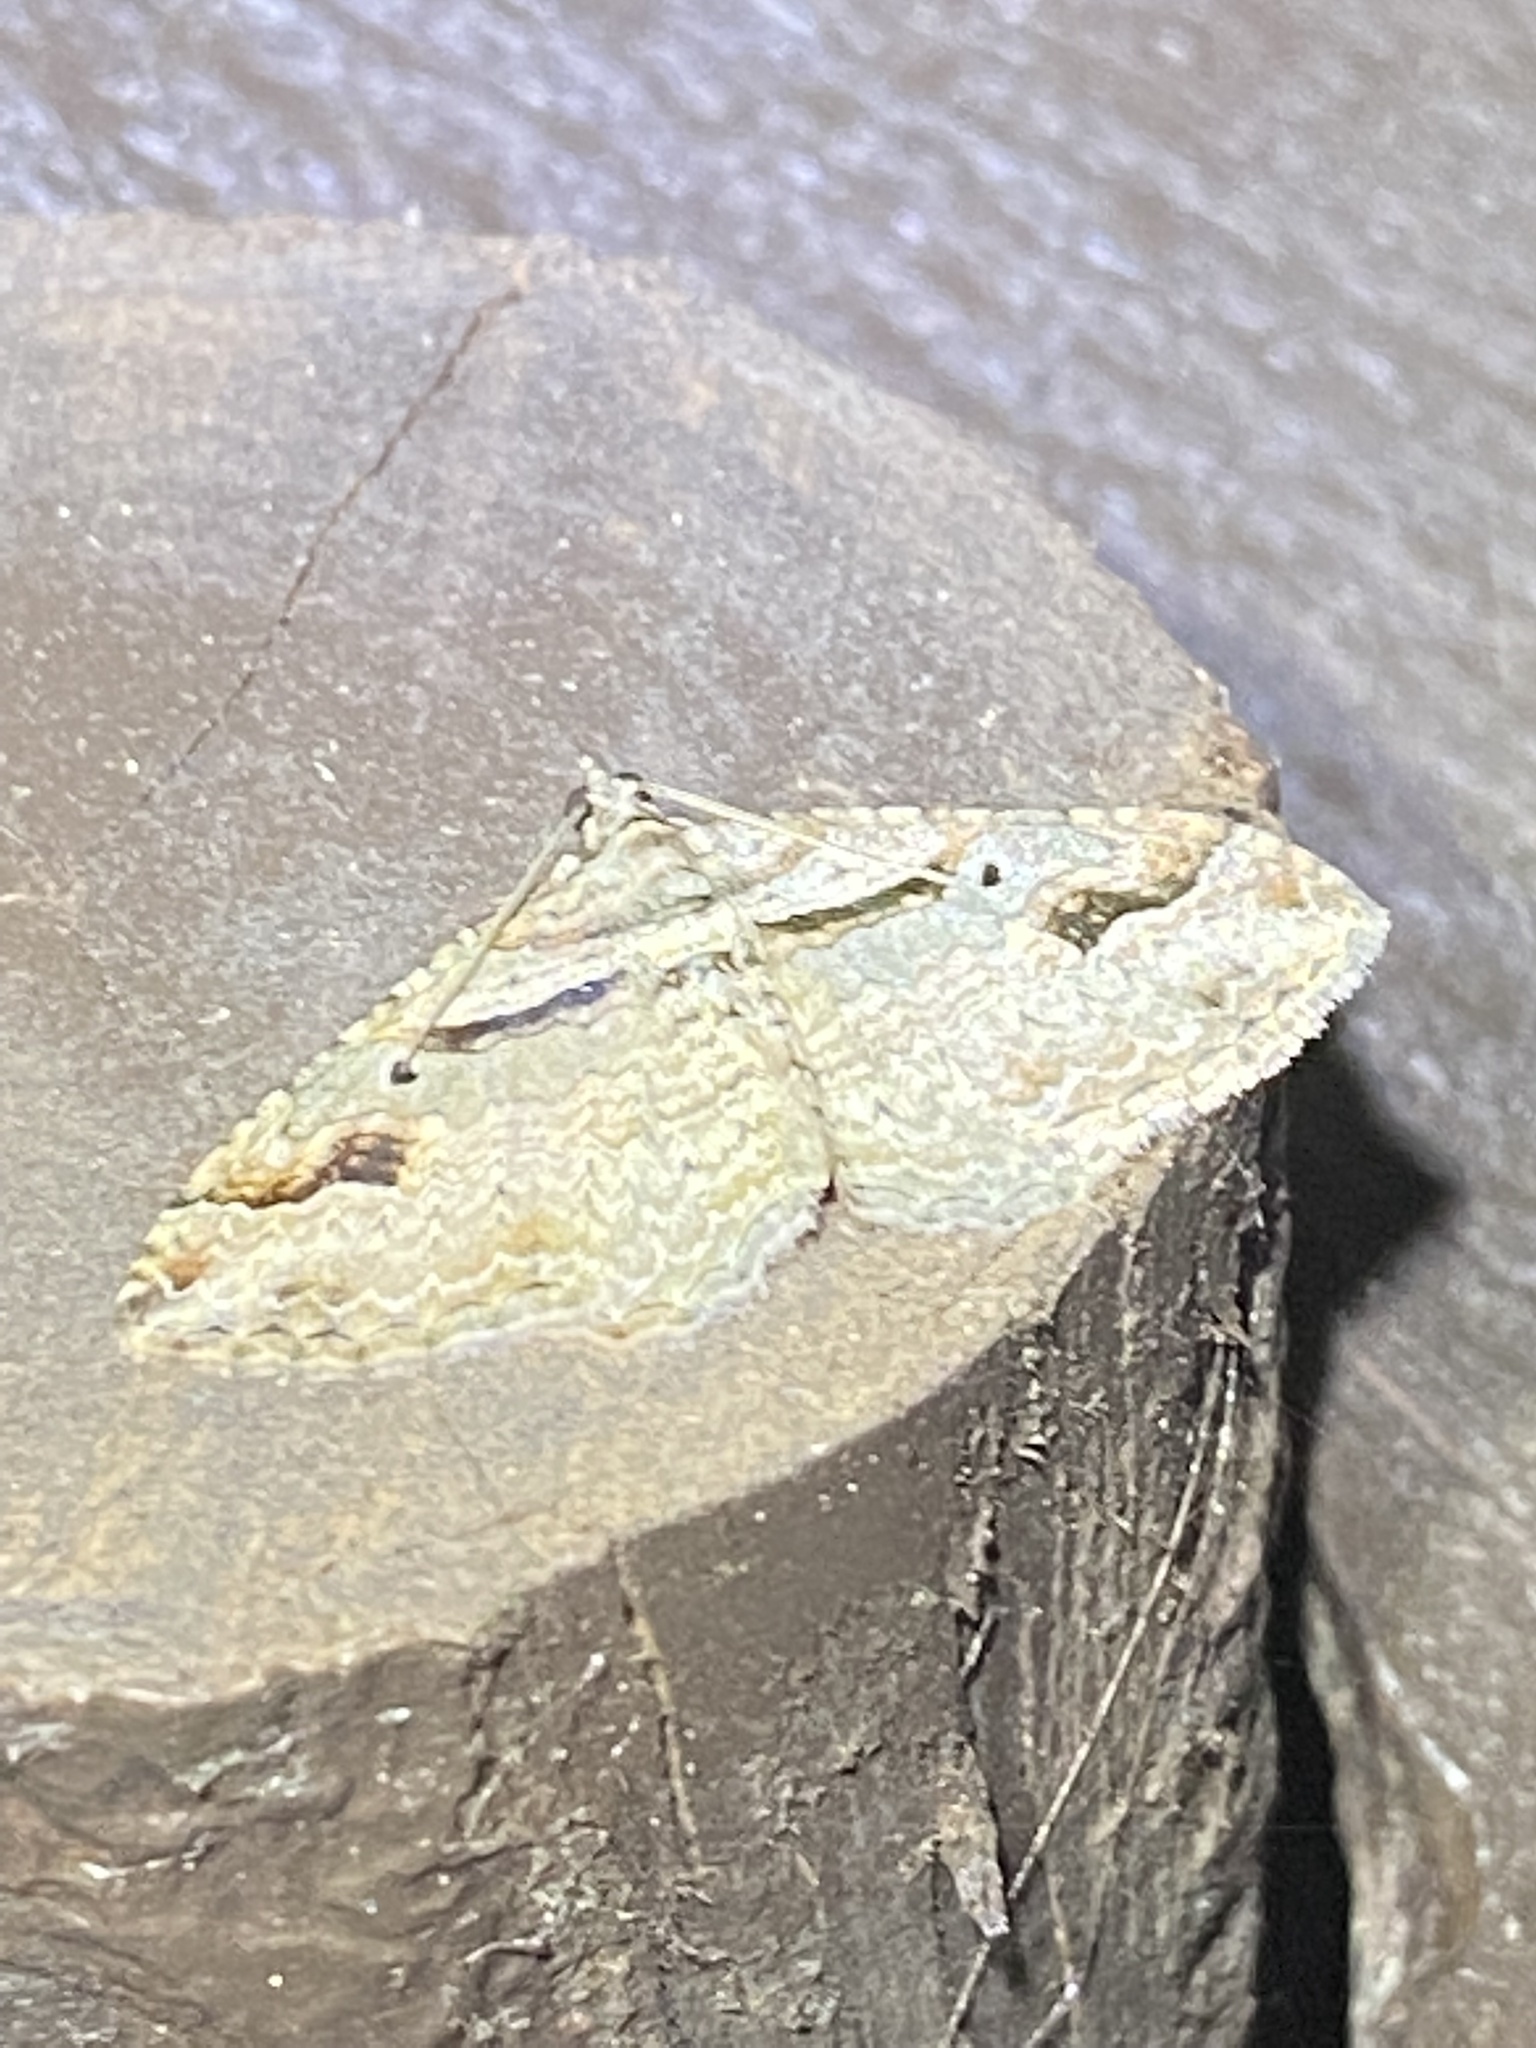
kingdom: Animalia
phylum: Arthropoda
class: Insecta
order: Lepidoptera
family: Geometridae
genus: Costaconvexa
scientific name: Costaconvexa centrostrigaria
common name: Bent-line carpet
